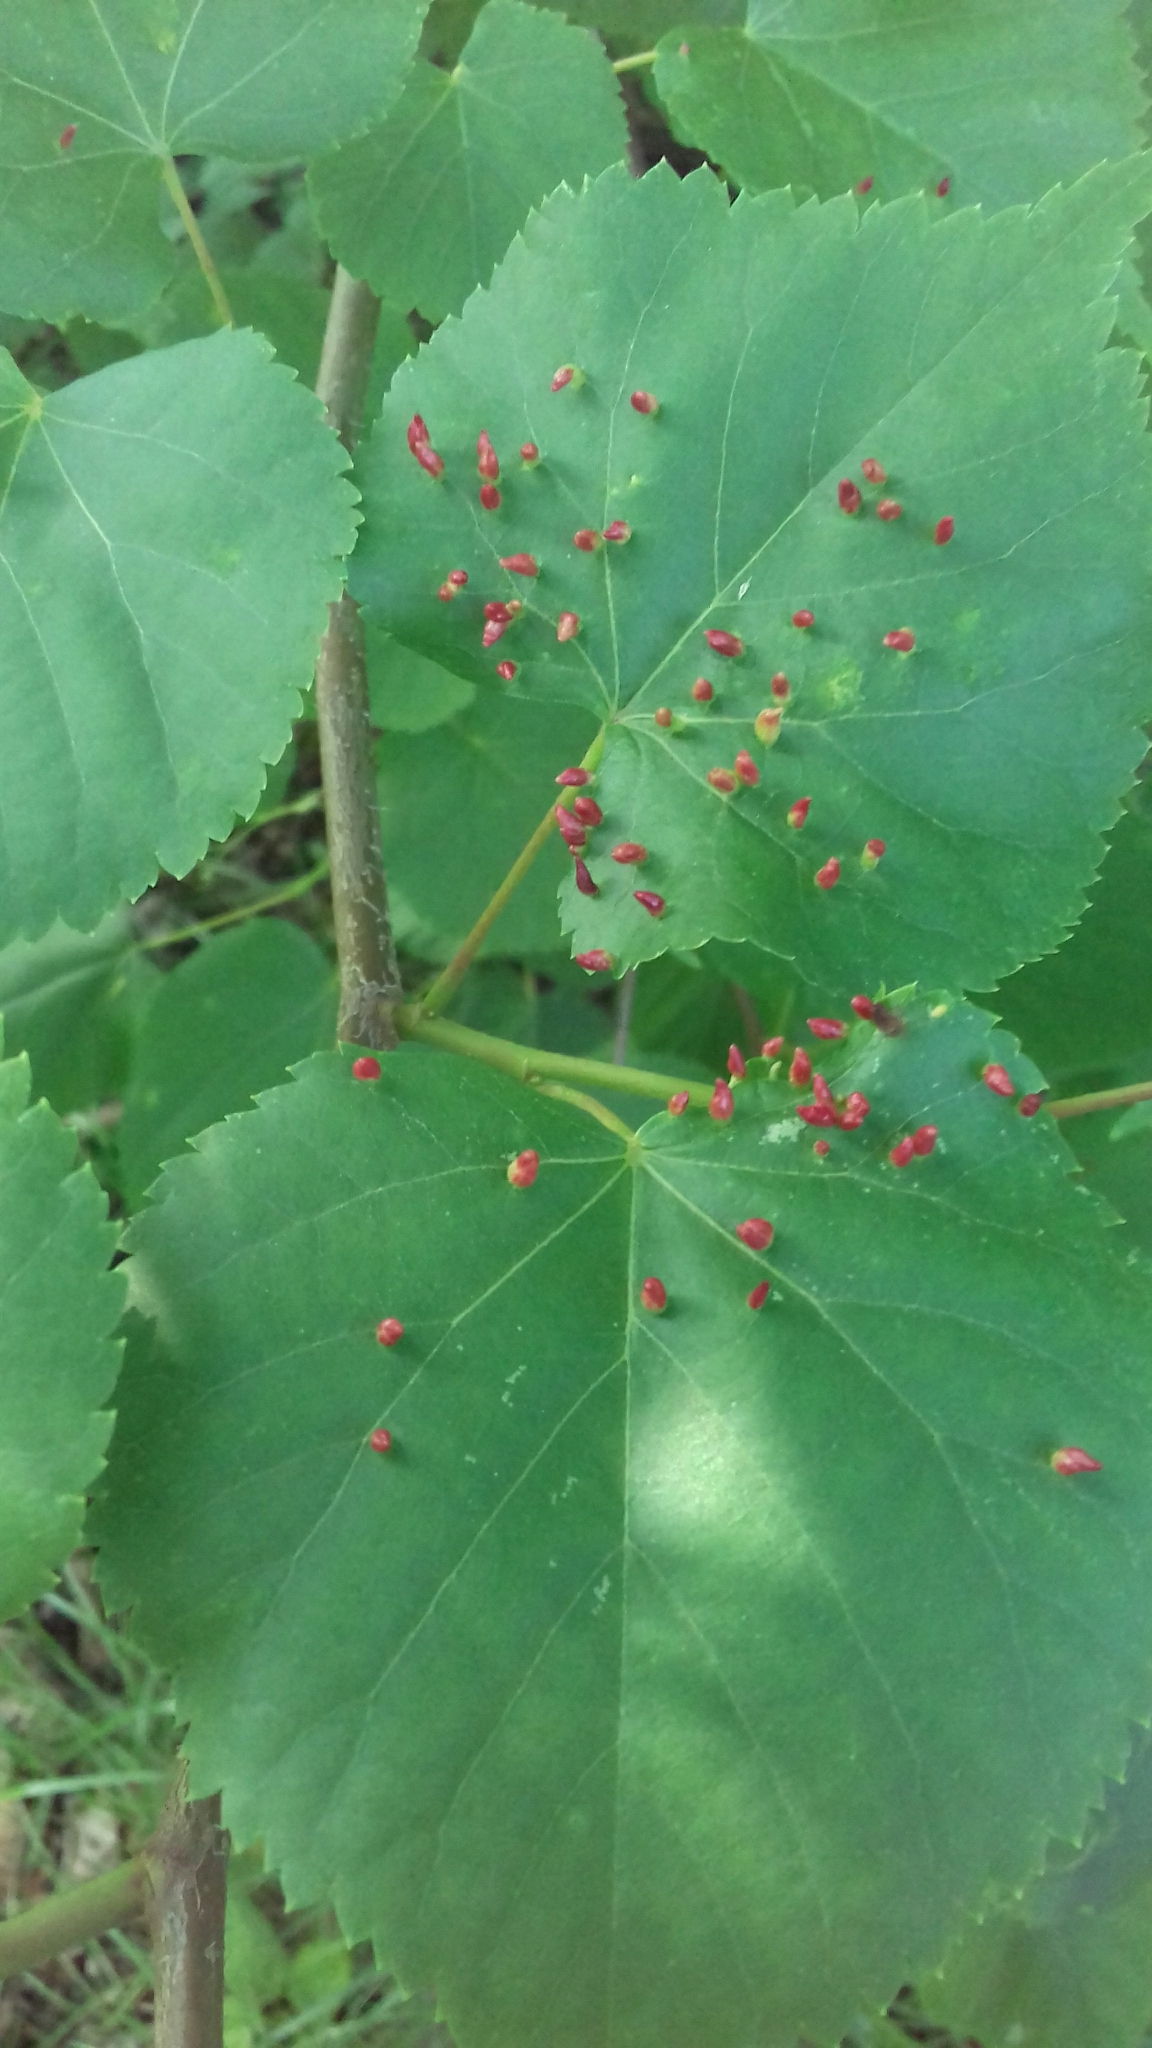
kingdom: Animalia
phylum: Arthropoda
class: Arachnida
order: Trombidiformes
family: Eriophyidae
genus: Eriophyes
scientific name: Eriophyes tiliae
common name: Red nail gall mite
